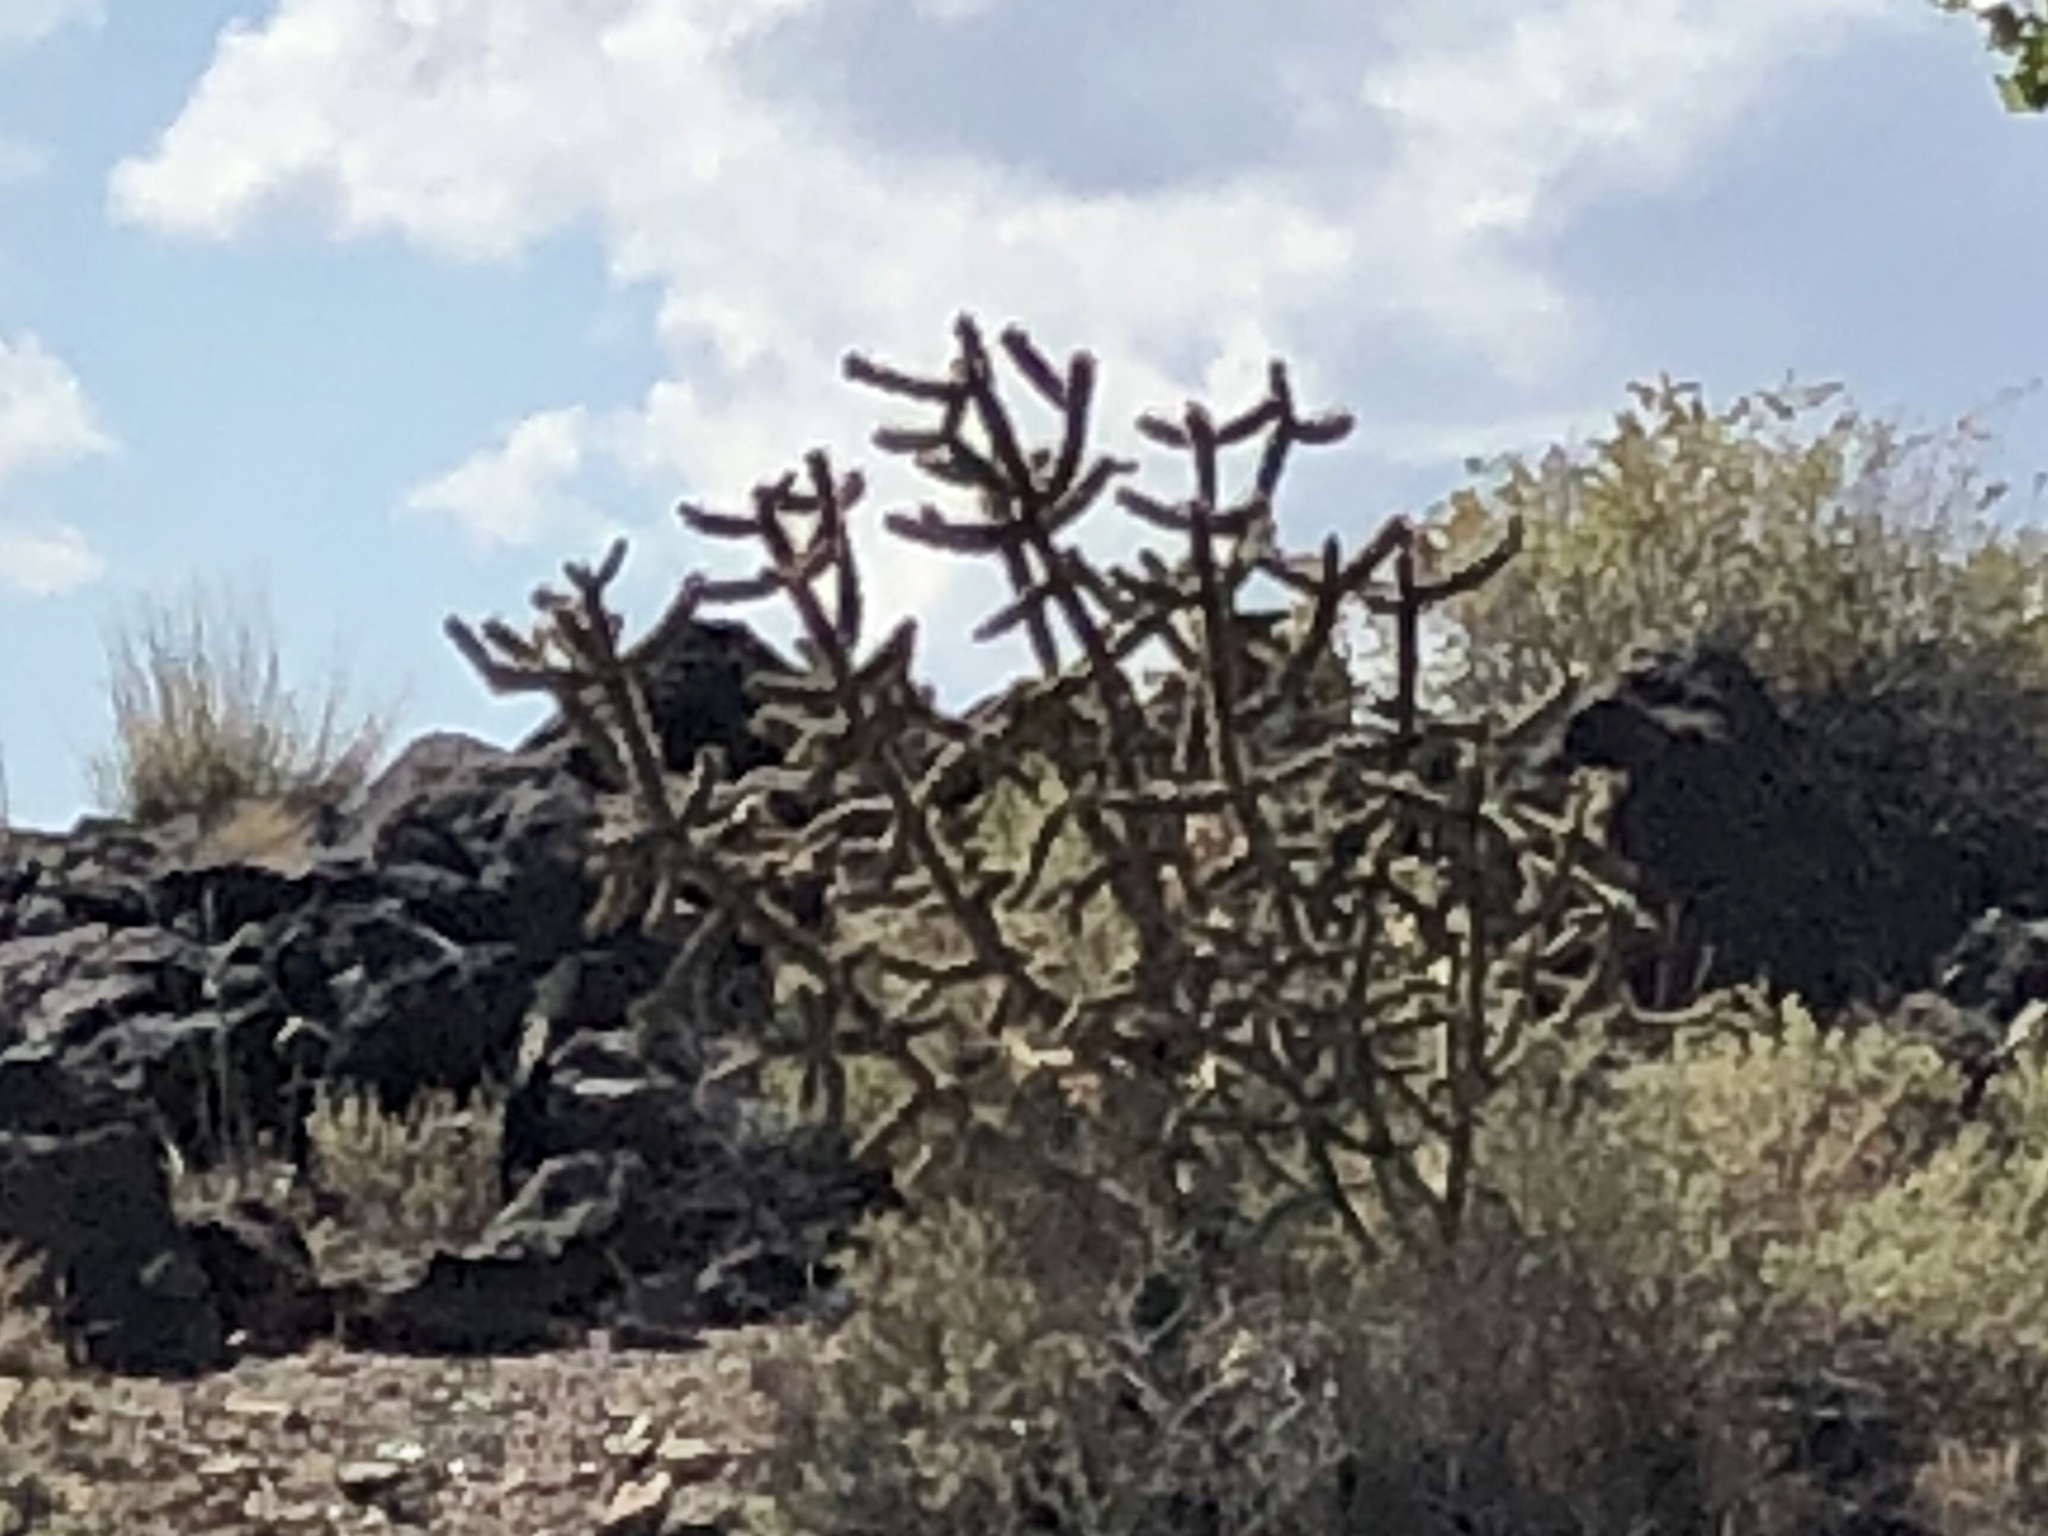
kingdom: Plantae
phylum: Tracheophyta
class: Magnoliopsida
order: Caryophyllales
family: Cactaceae
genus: Cylindropuntia
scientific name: Cylindropuntia imbricata
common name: Candelabrum cactus
